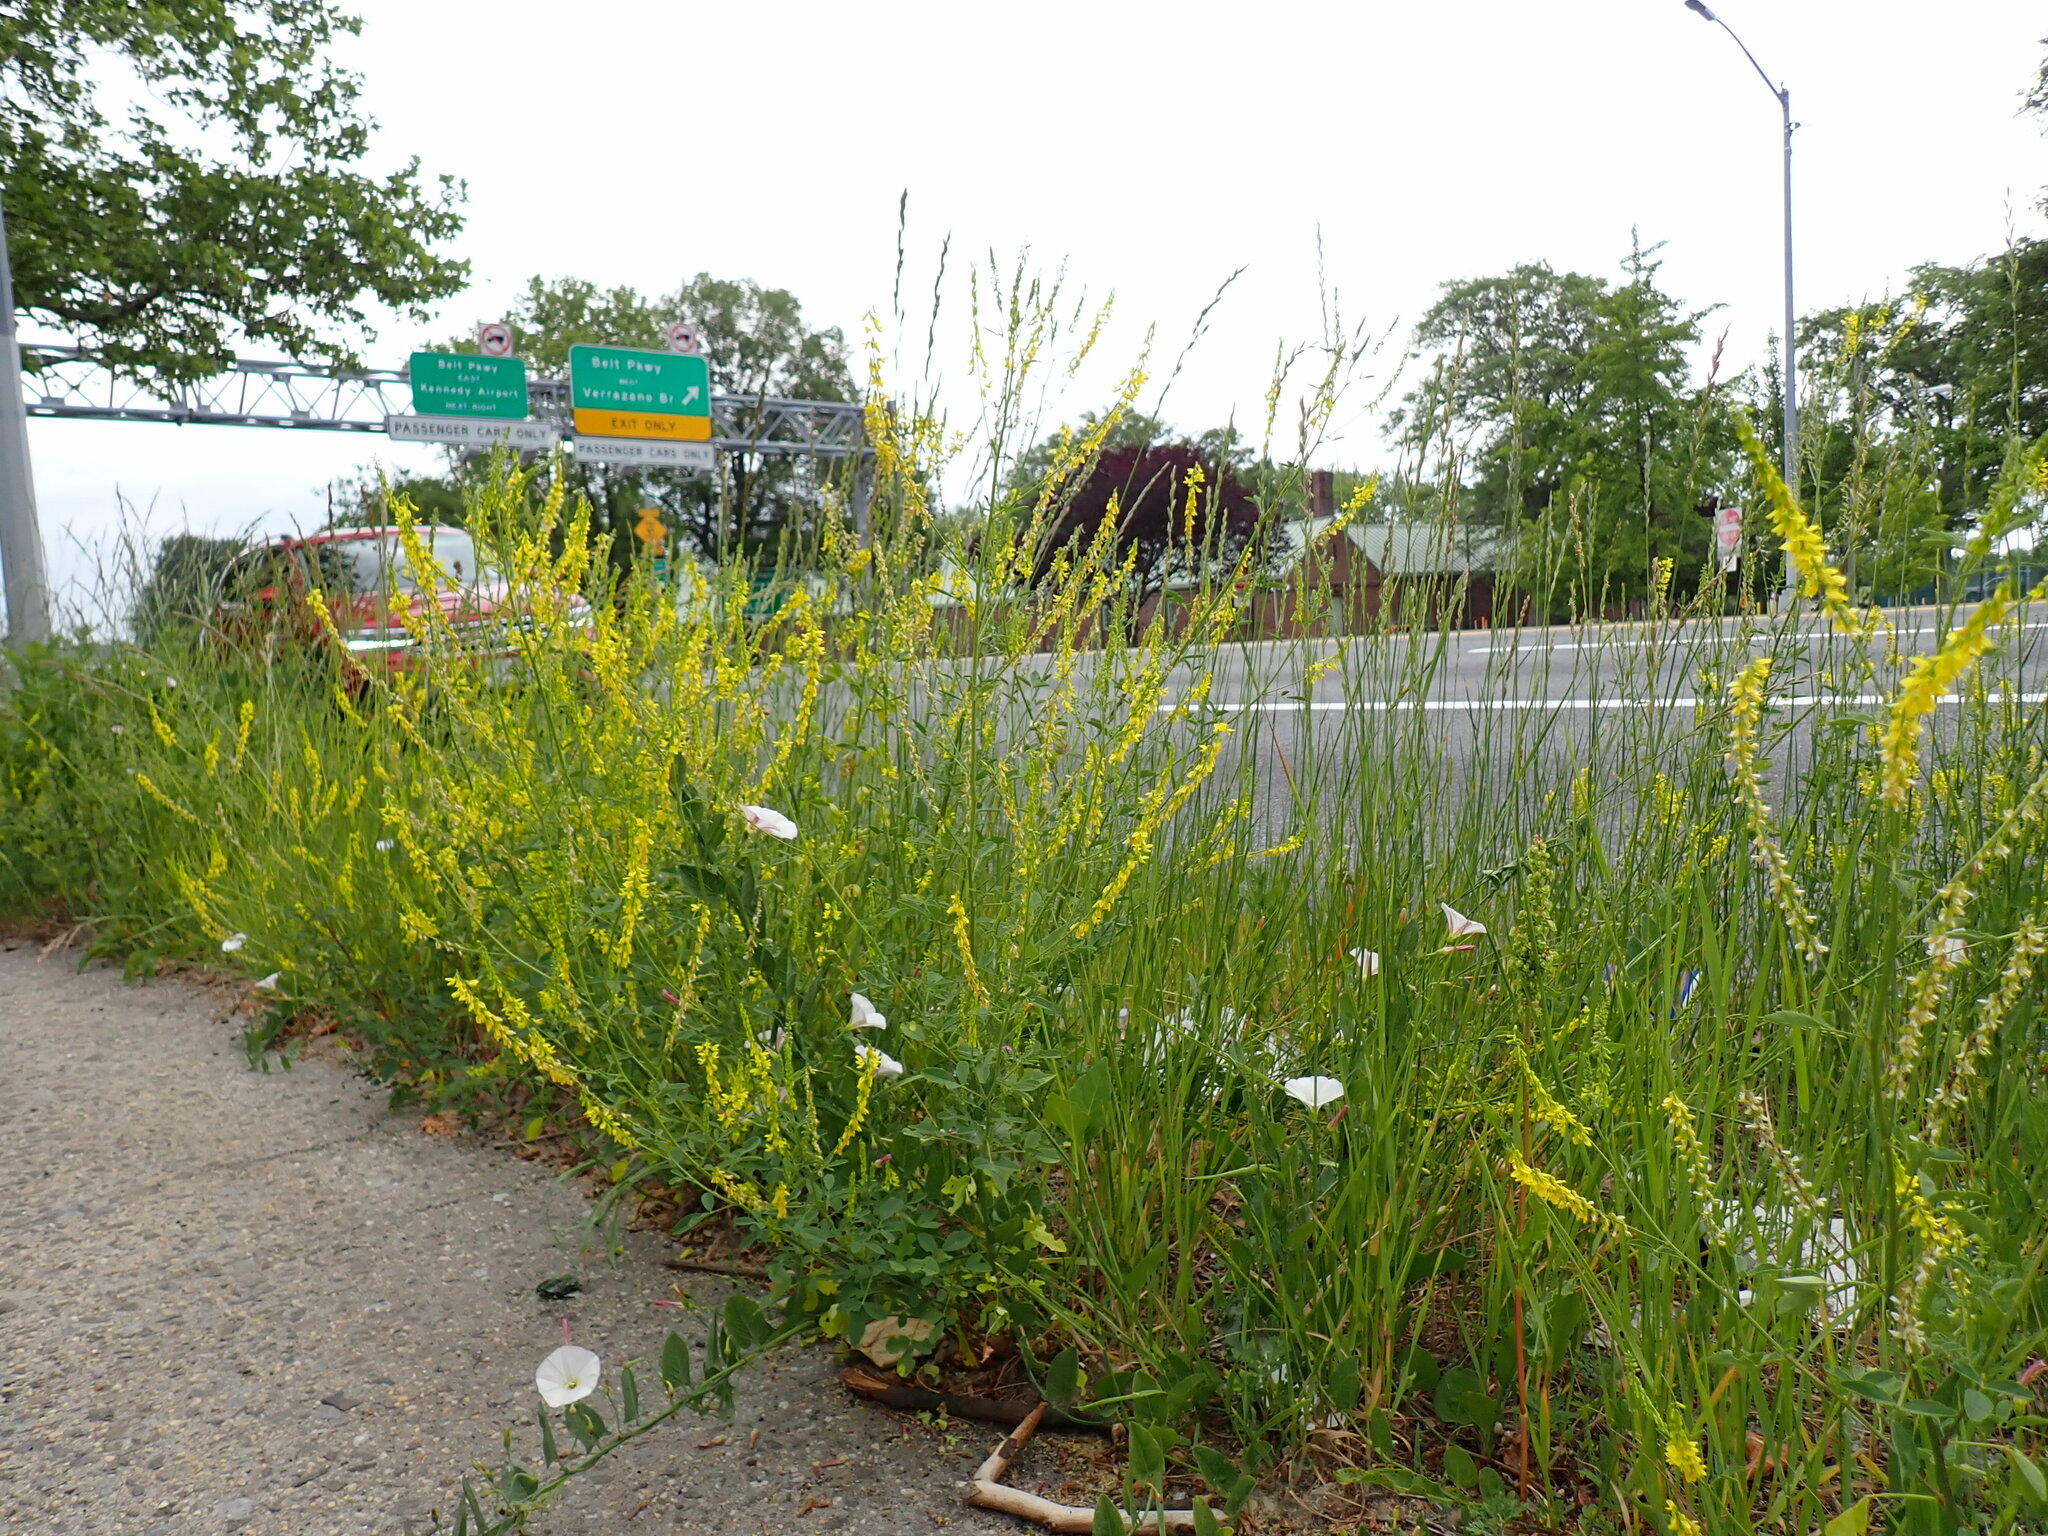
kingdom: Plantae
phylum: Tracheophyta
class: Magnoliopsida
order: Fabales
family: Fabaceae
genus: Melilotus
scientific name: Melilotus officinalis
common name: Sweetclover
